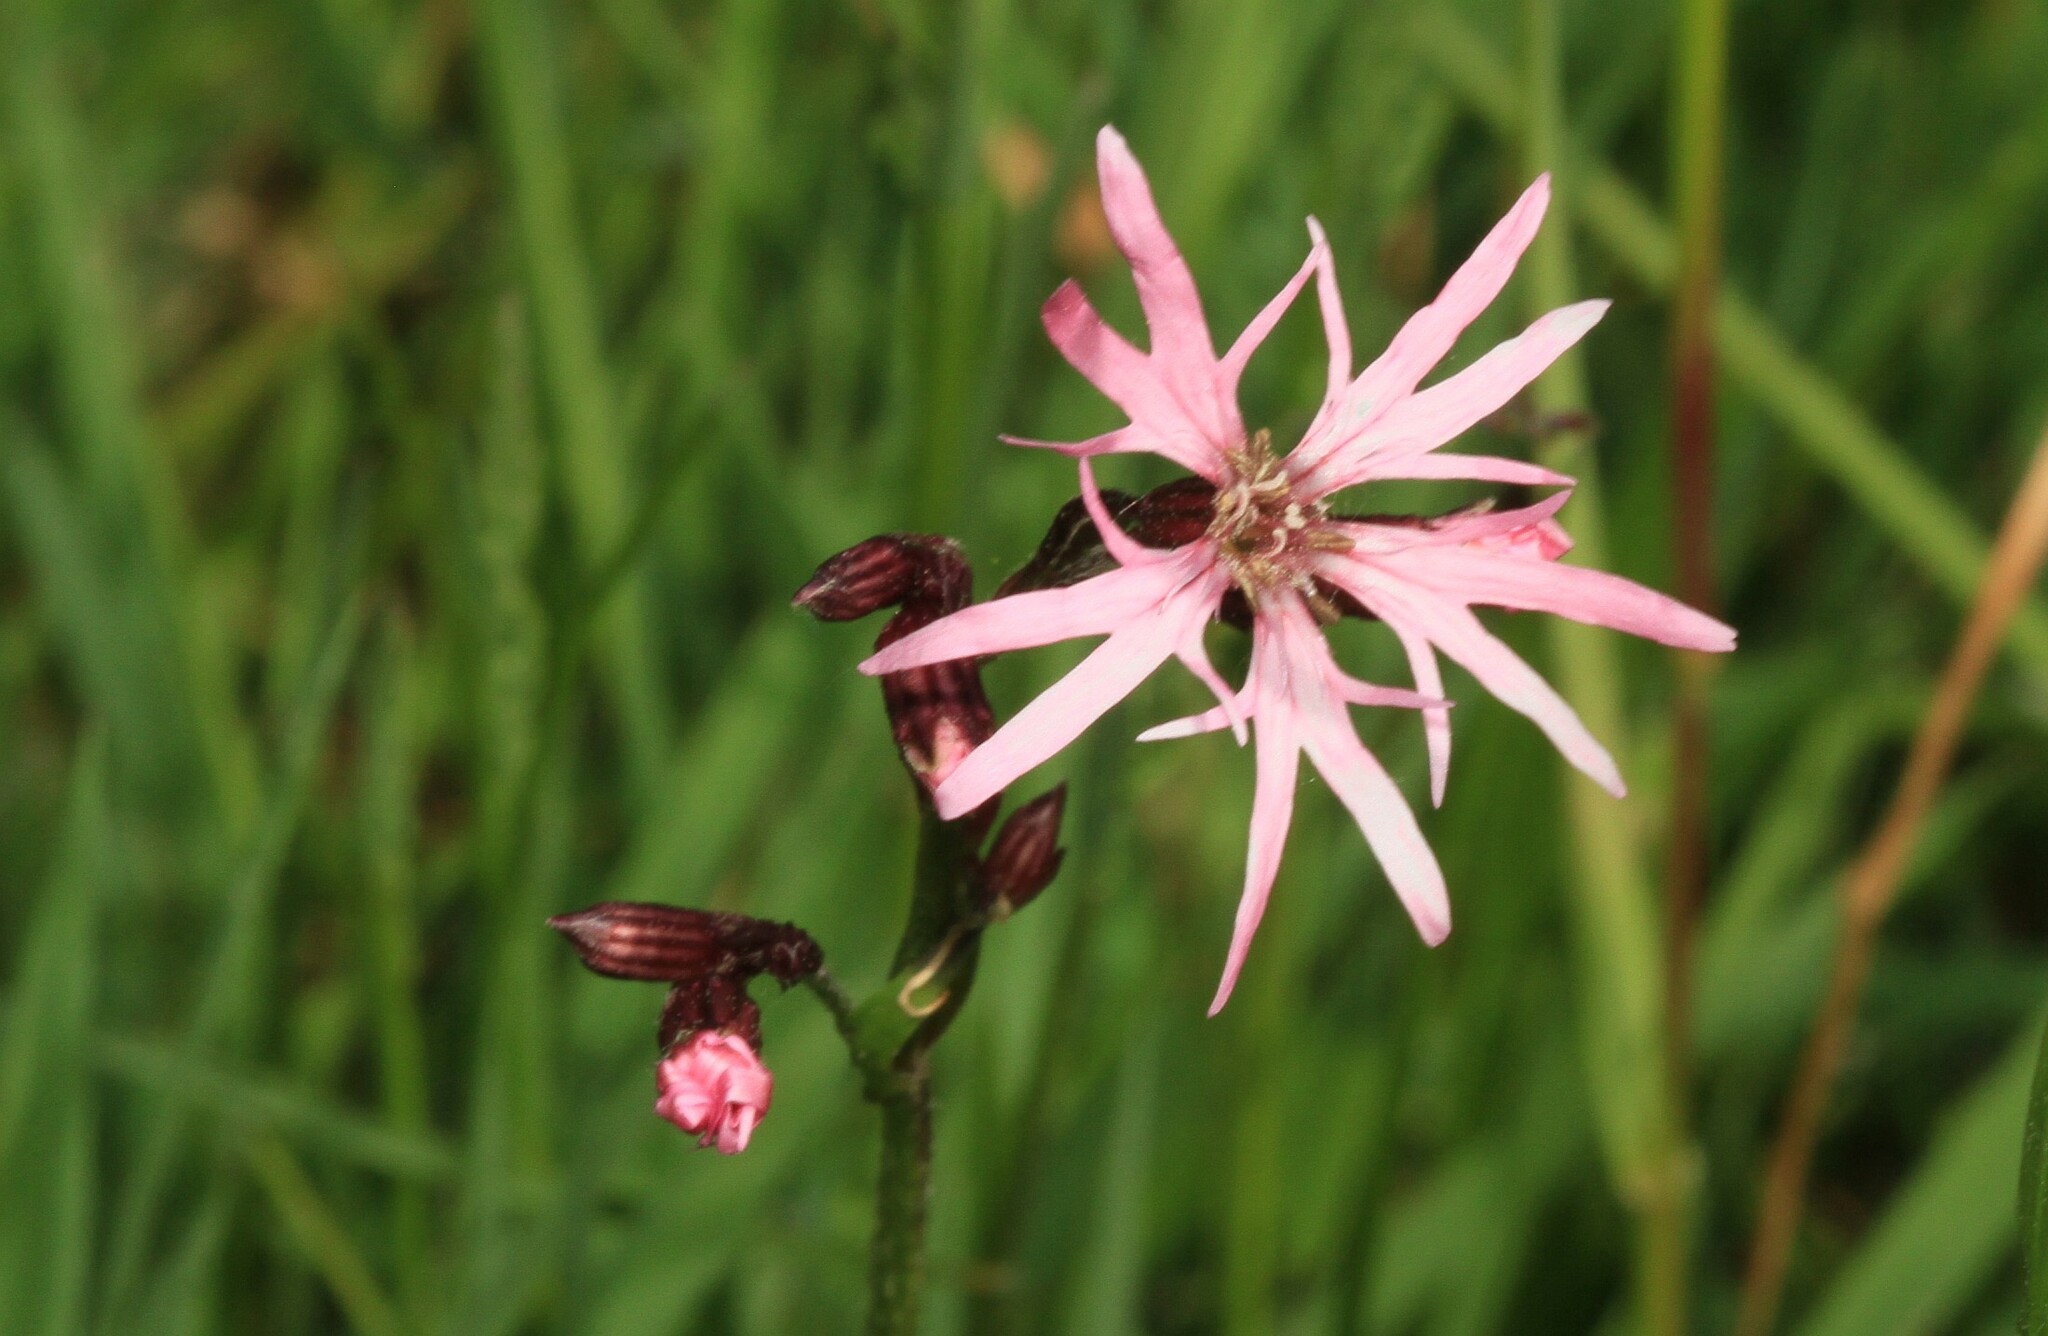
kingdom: Plantae
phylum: Tracheophyta
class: Magnoliopsida
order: Caryophyllales
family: Caryophyllaceae
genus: Silene
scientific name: Silene flos-cuculi
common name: Ragged-robin
